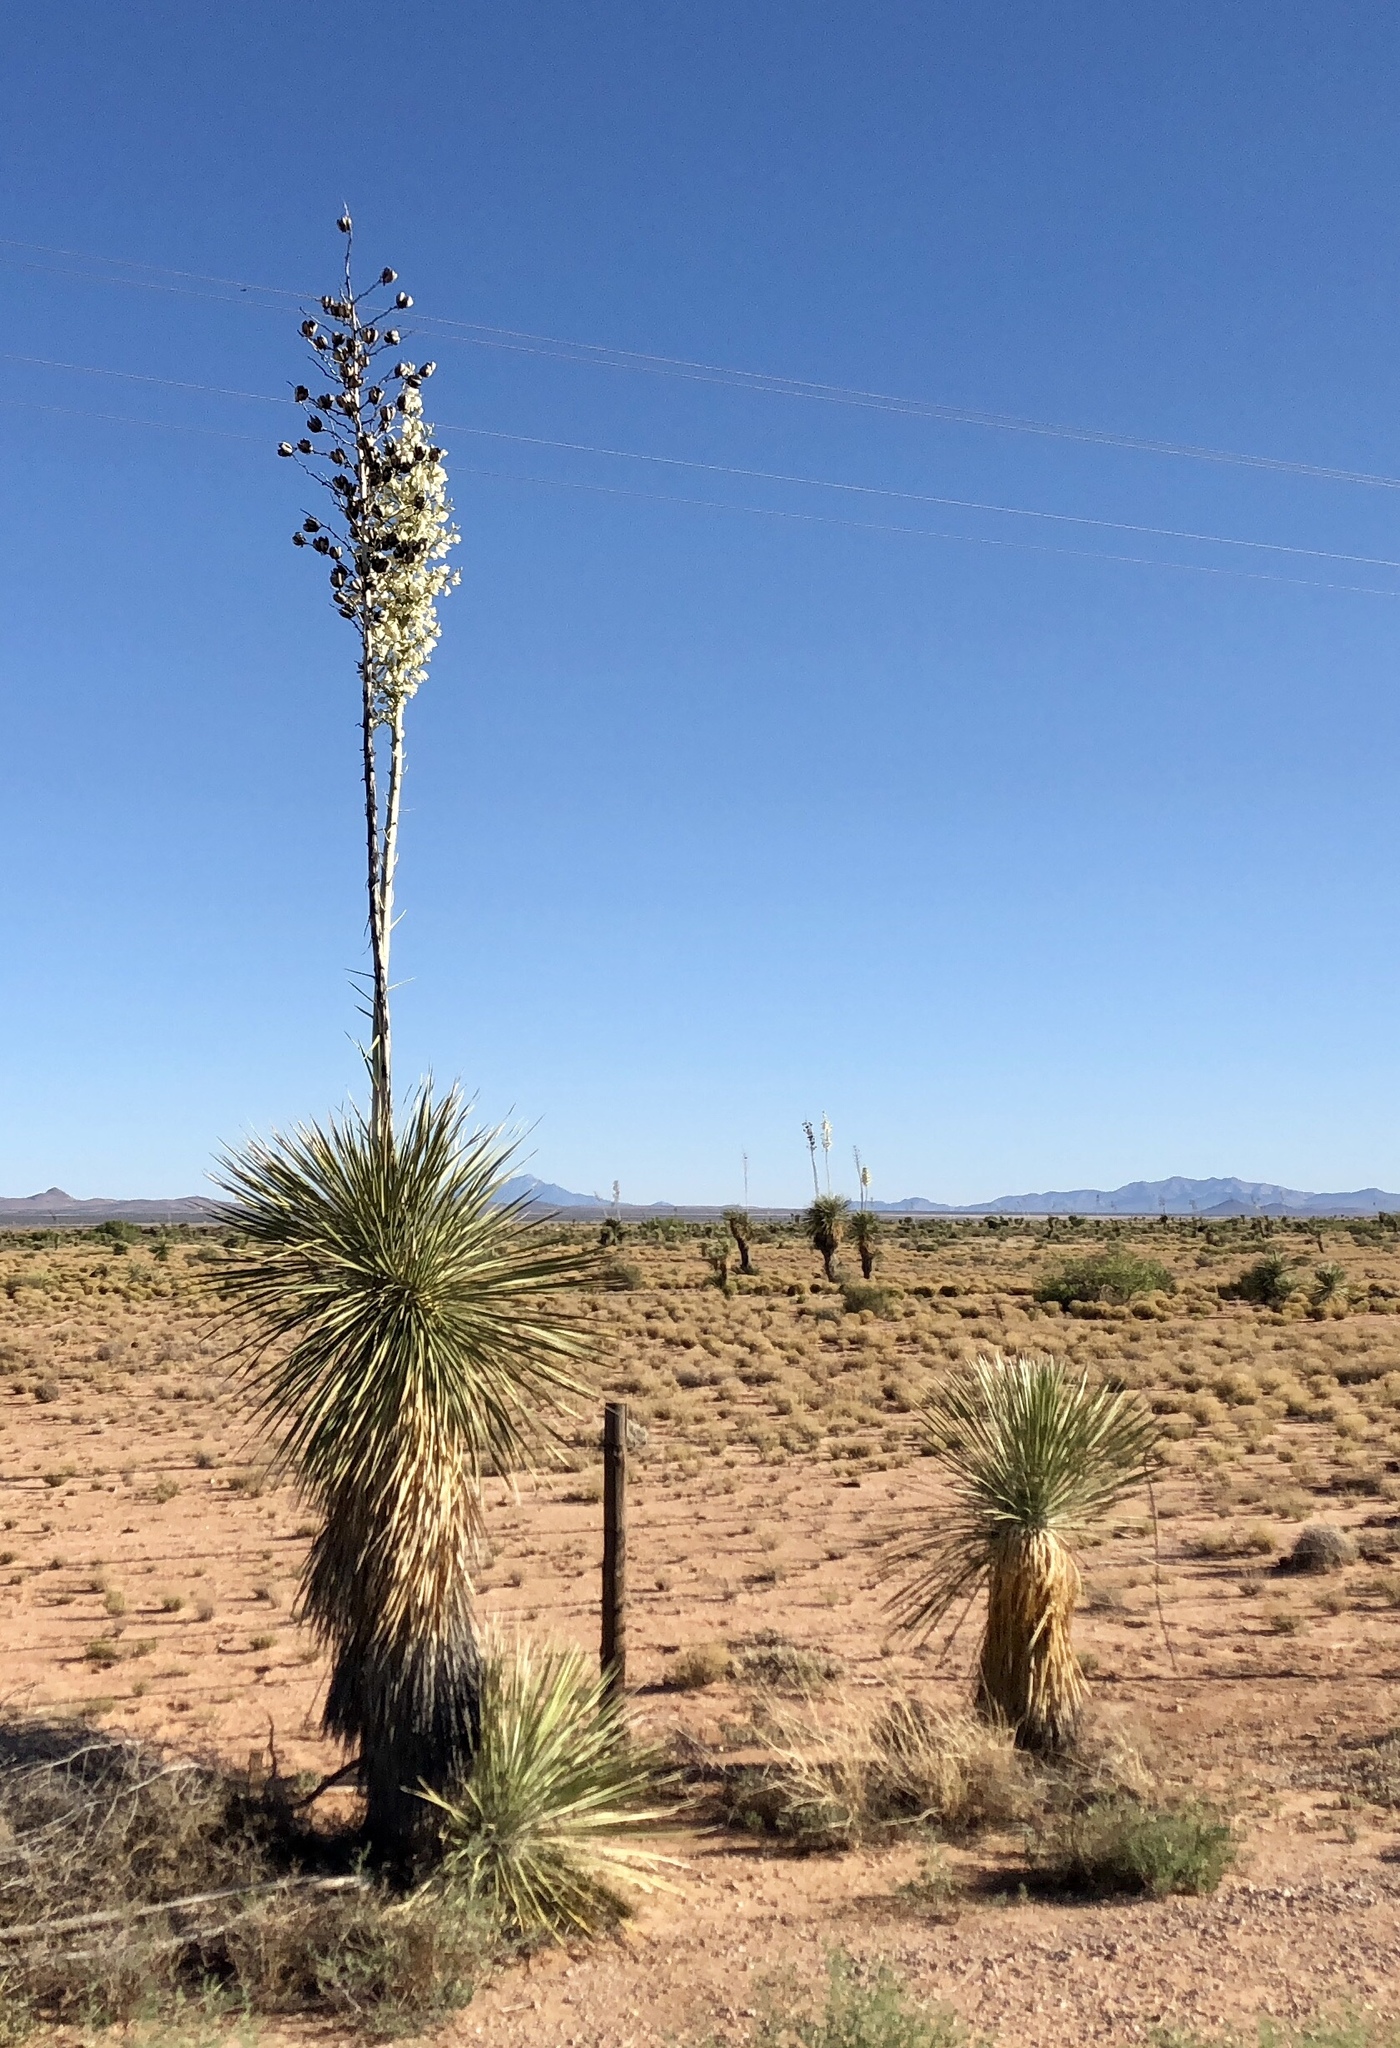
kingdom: Plantae
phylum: Tracheophyta
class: Liliopsida
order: Asparagales
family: Asparagaceae
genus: Yucca
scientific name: Yucca elata
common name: Palmella
